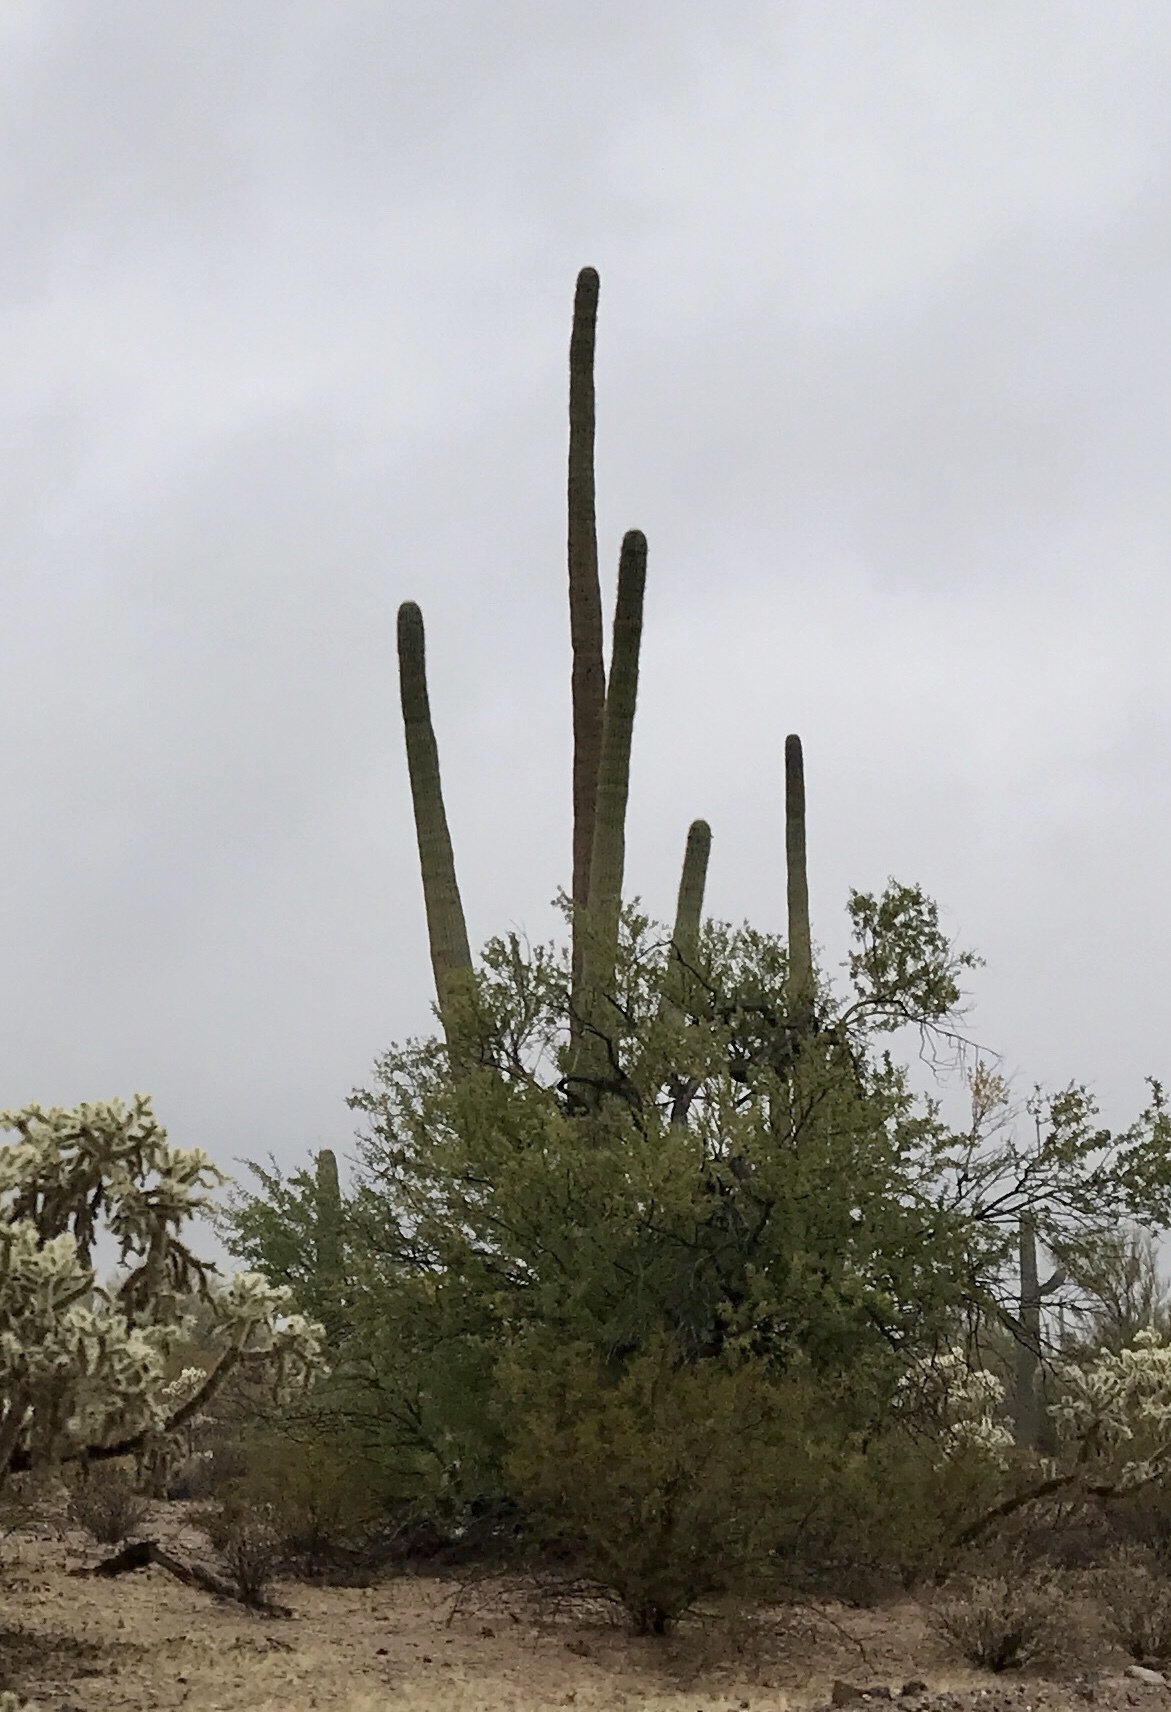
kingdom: Plantae
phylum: Tracheophyta
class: Magnoliopsida
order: Caryophyllales
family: Cactaceae
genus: Carnegiea
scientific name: Carnegiea gigantea
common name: Saguaro
